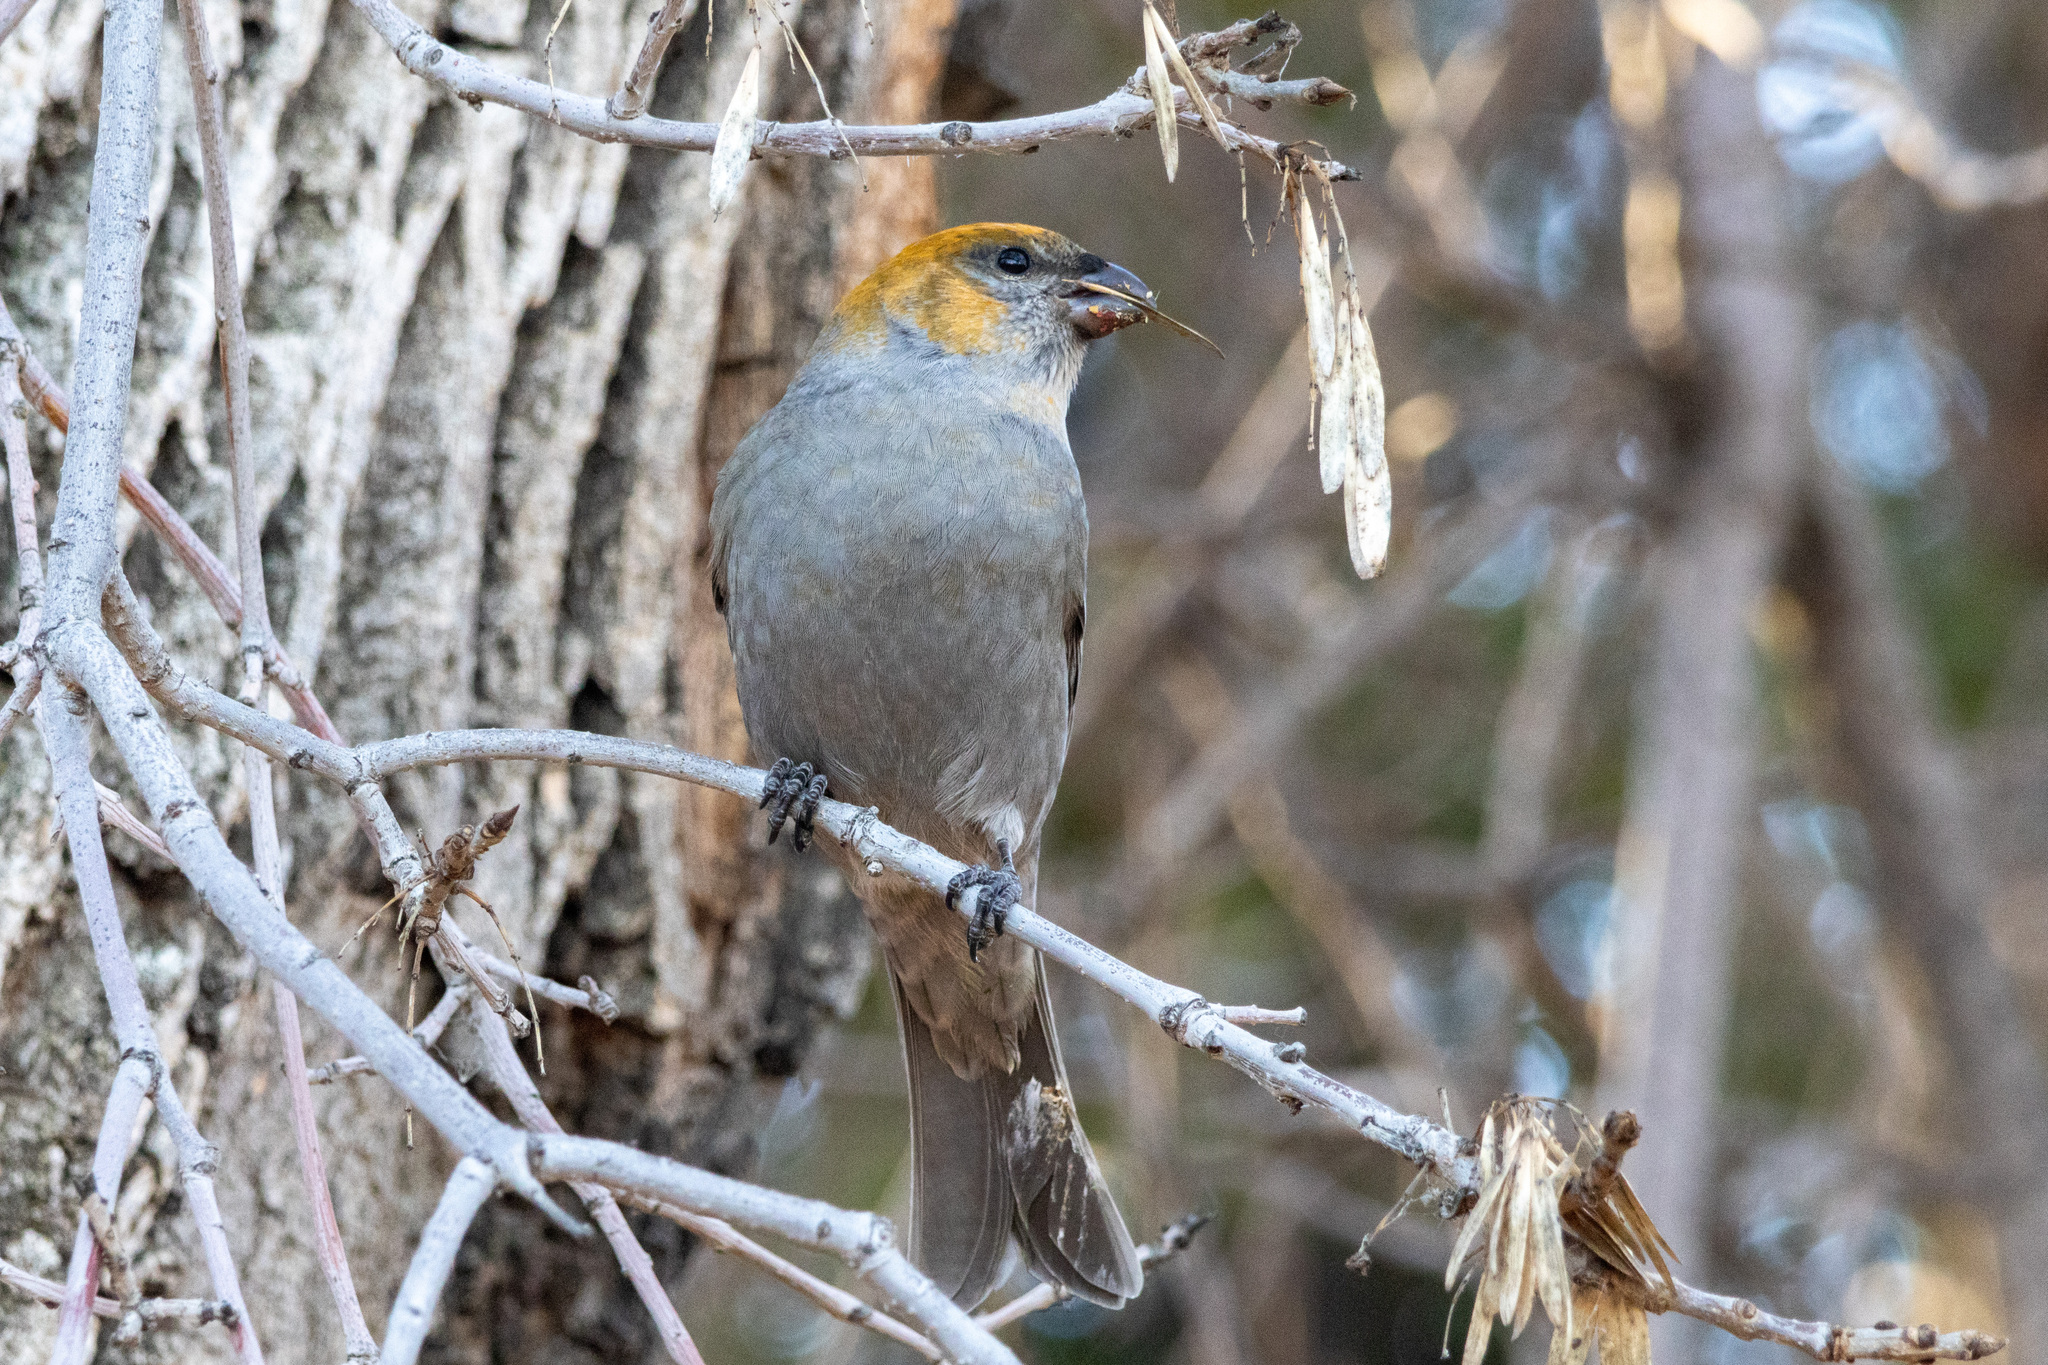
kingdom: Animalia
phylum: Chordata
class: Aves
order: Passeriformes
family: Fringillidae
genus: Pinicola
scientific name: Pinicola enucleator
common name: Pine grosbeak
